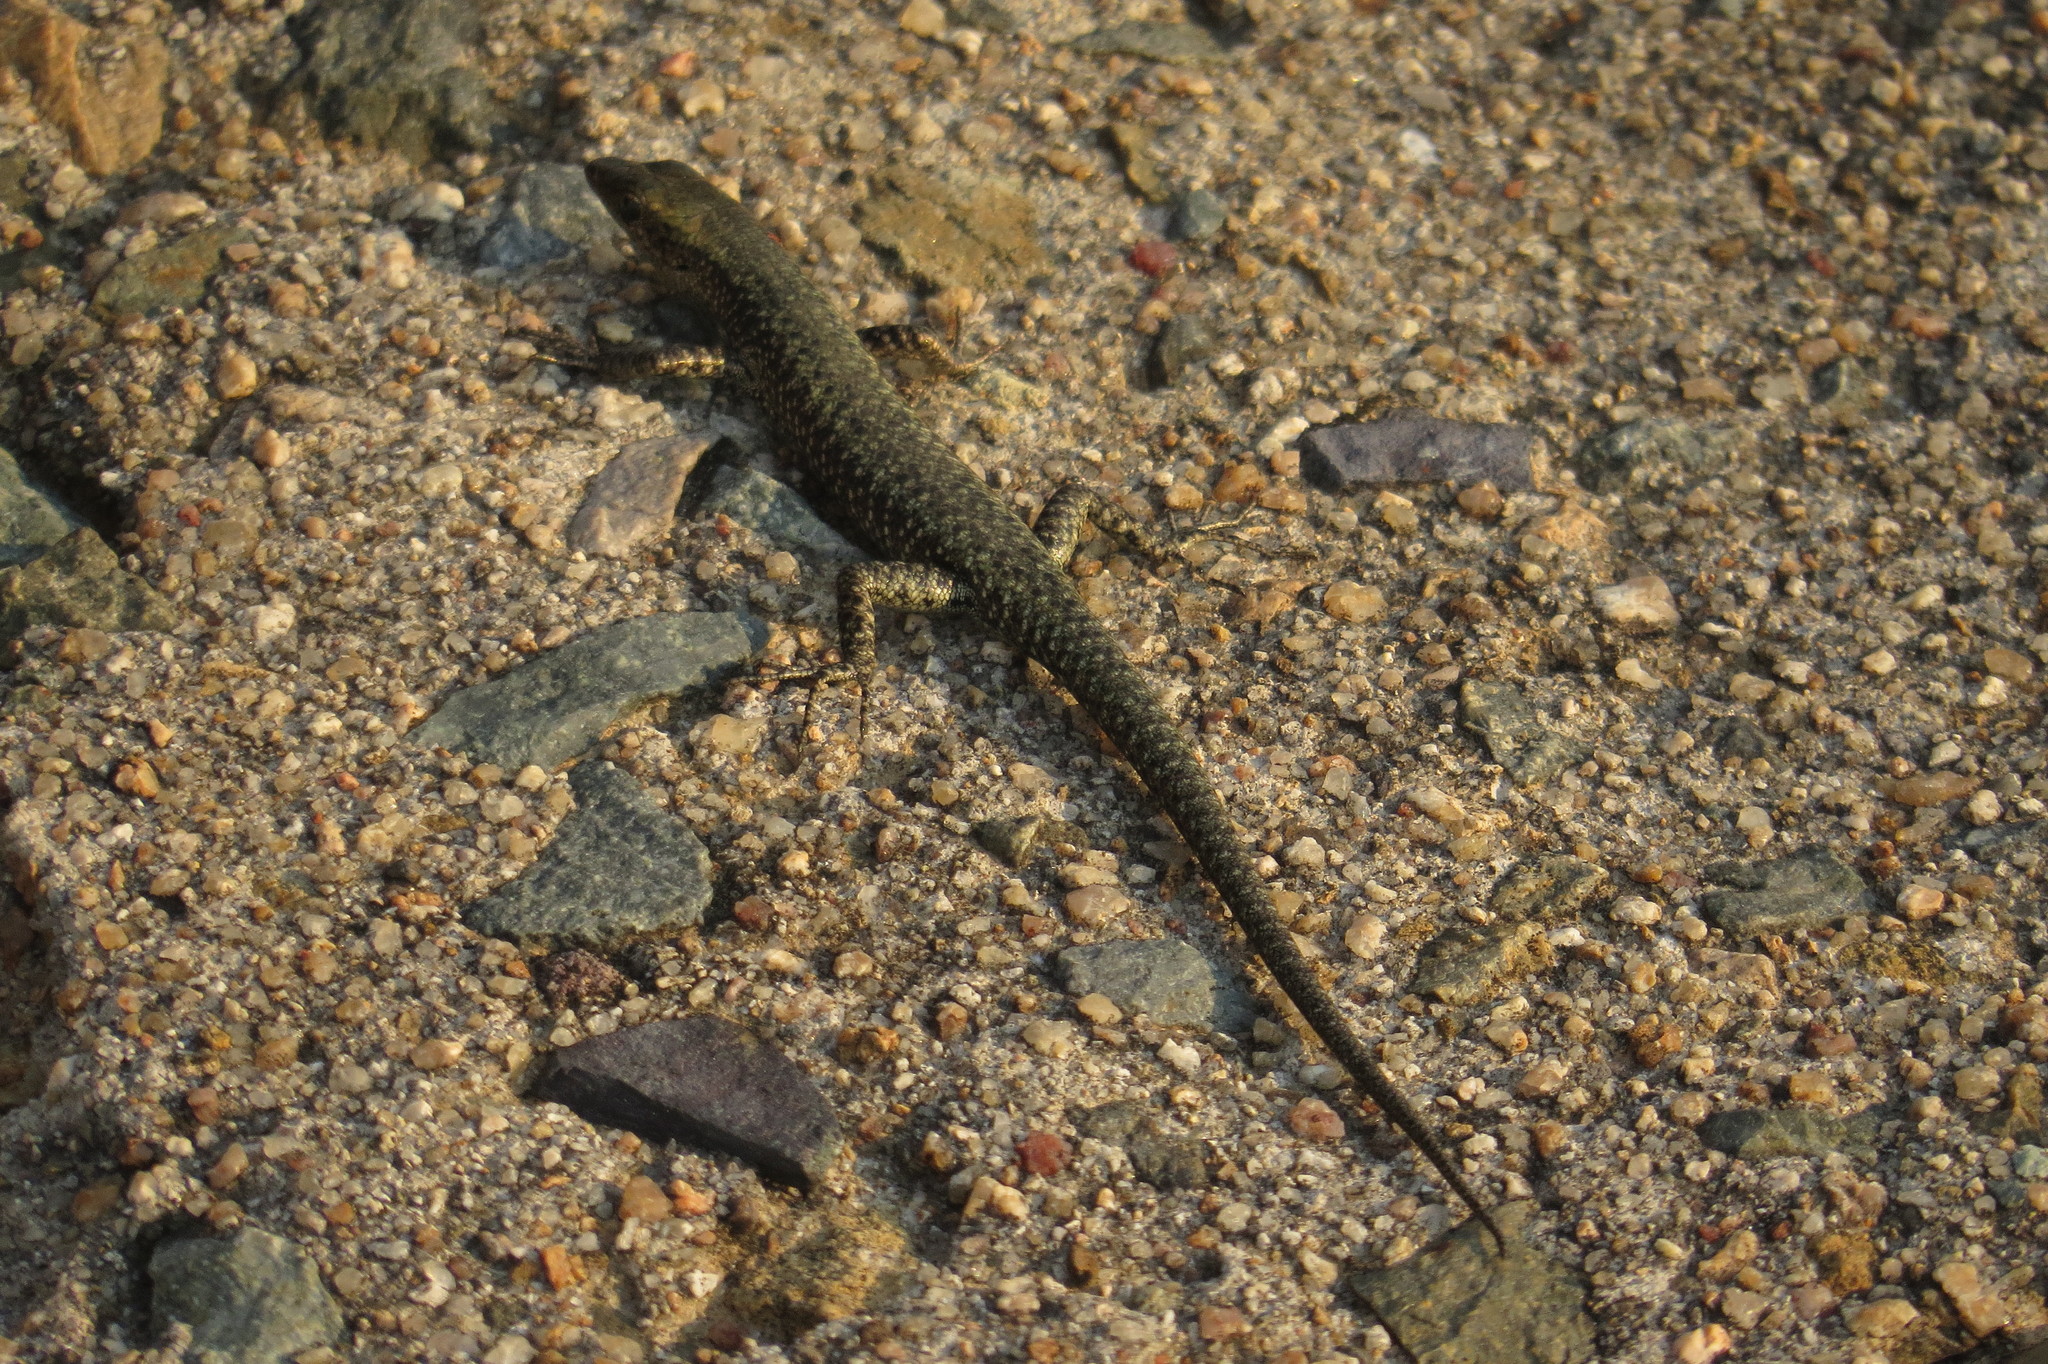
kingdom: Animalia
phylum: Chordata
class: Squamata
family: Scincidae
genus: Cryptoblepharus
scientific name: Cryptoblepharus litoralis
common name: Coastal snake-eyed skink
